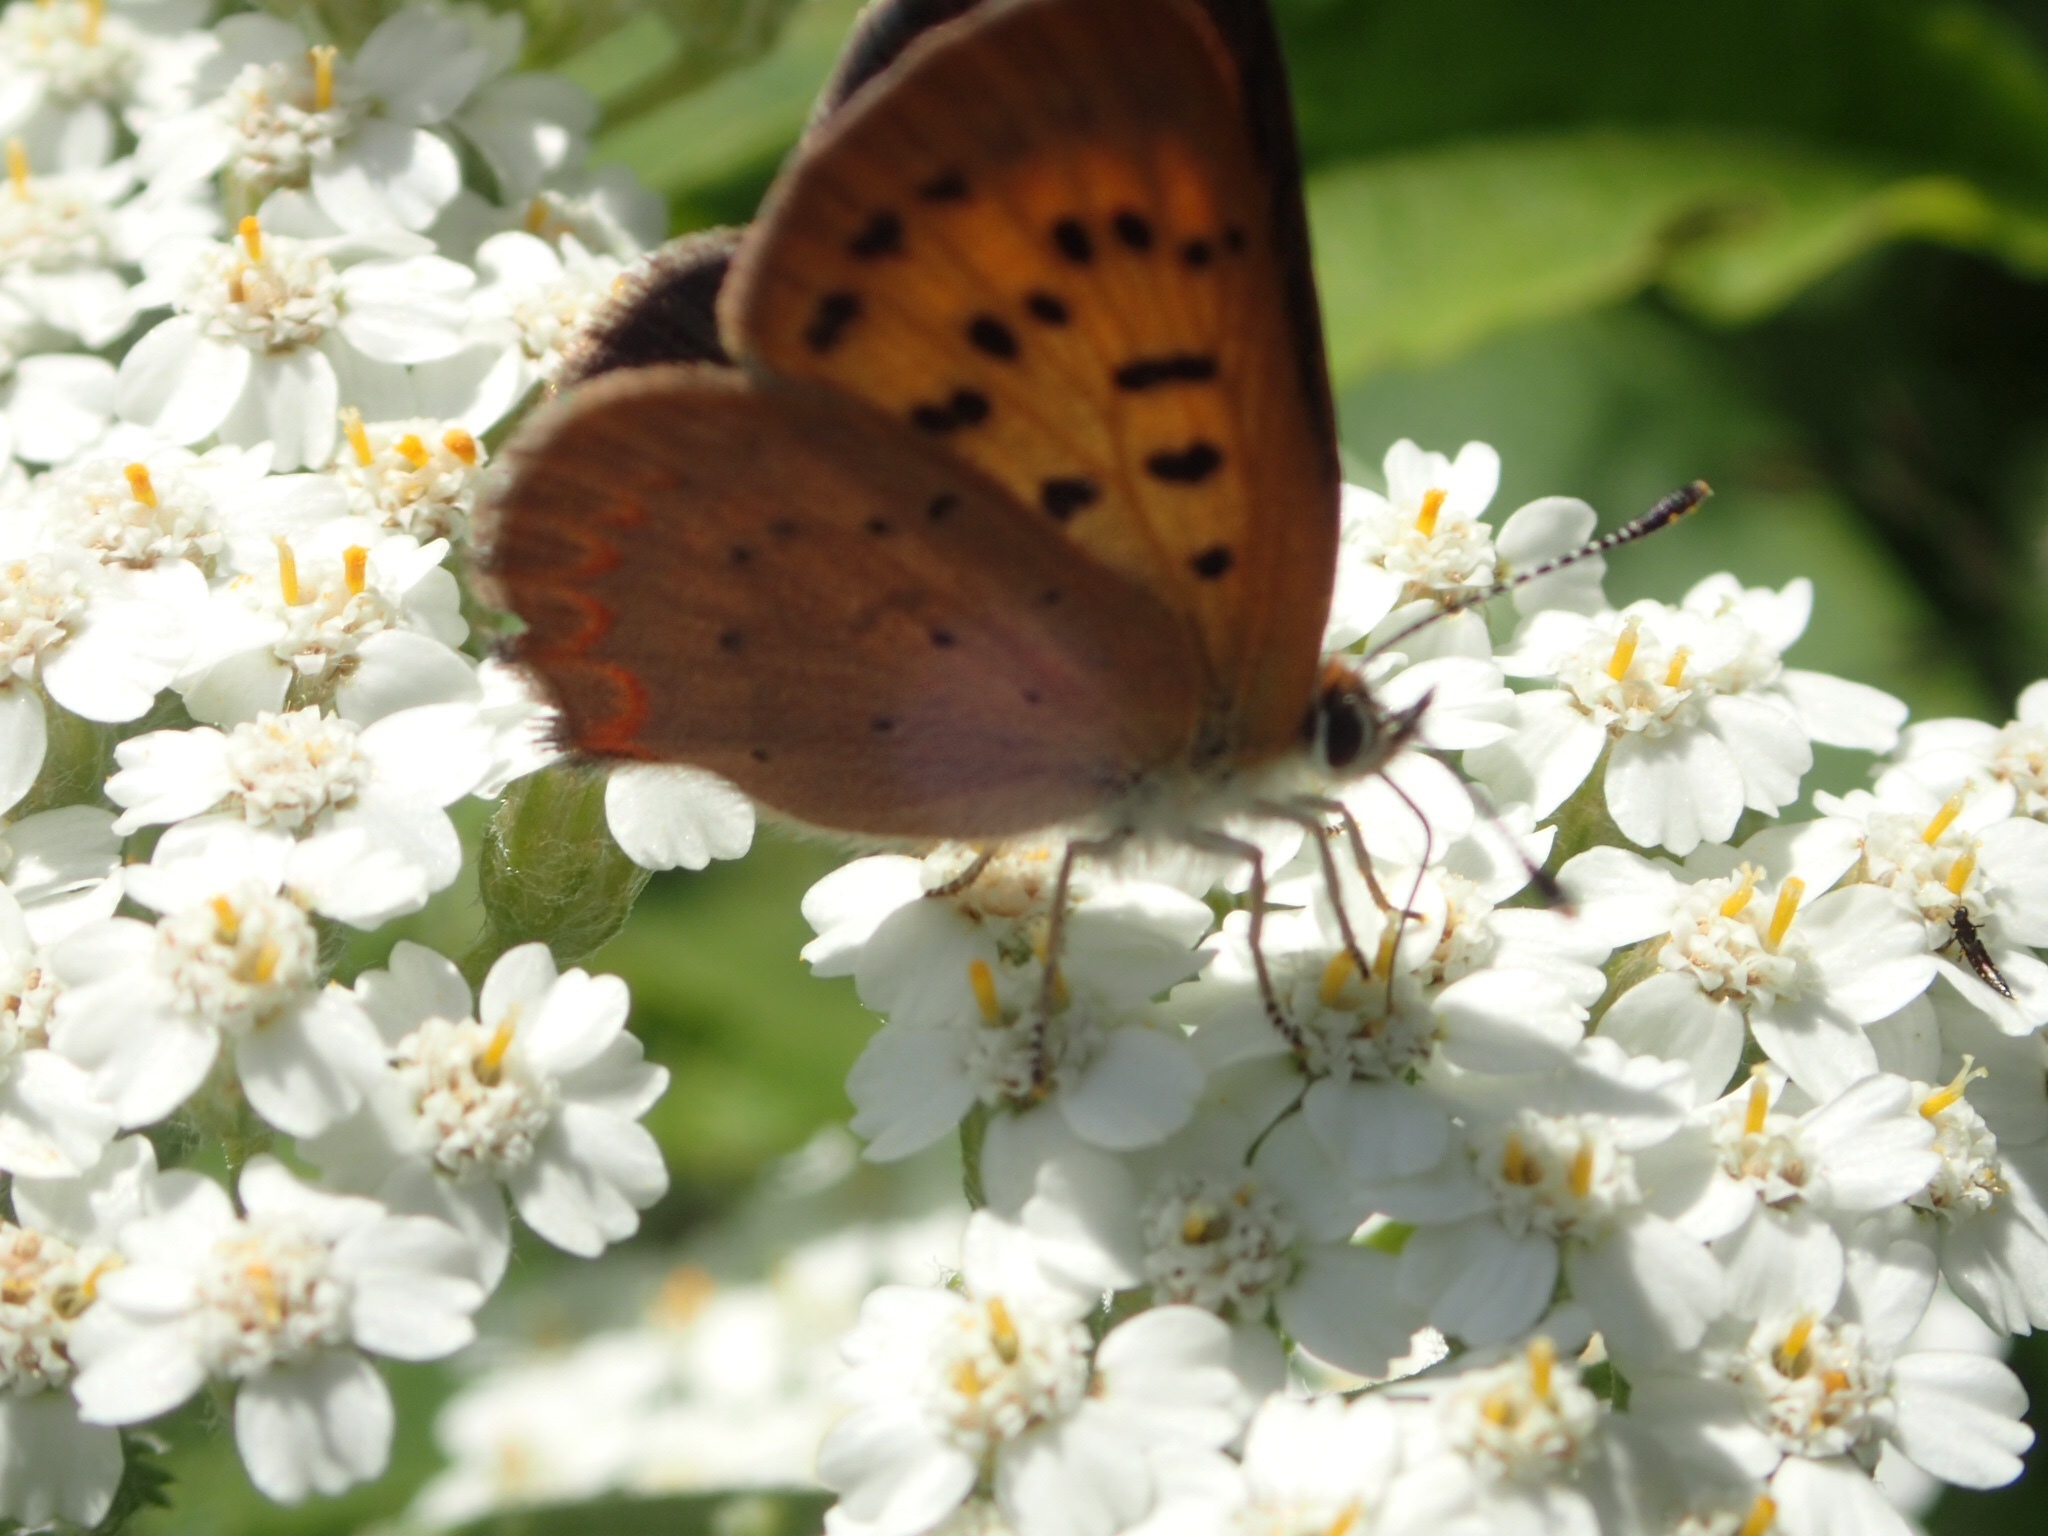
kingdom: Animalia
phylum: Arthropoda
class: Insecta
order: Lepidoptera
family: Lycaenidae
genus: Tharsalea
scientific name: Tharsalea dorcas
